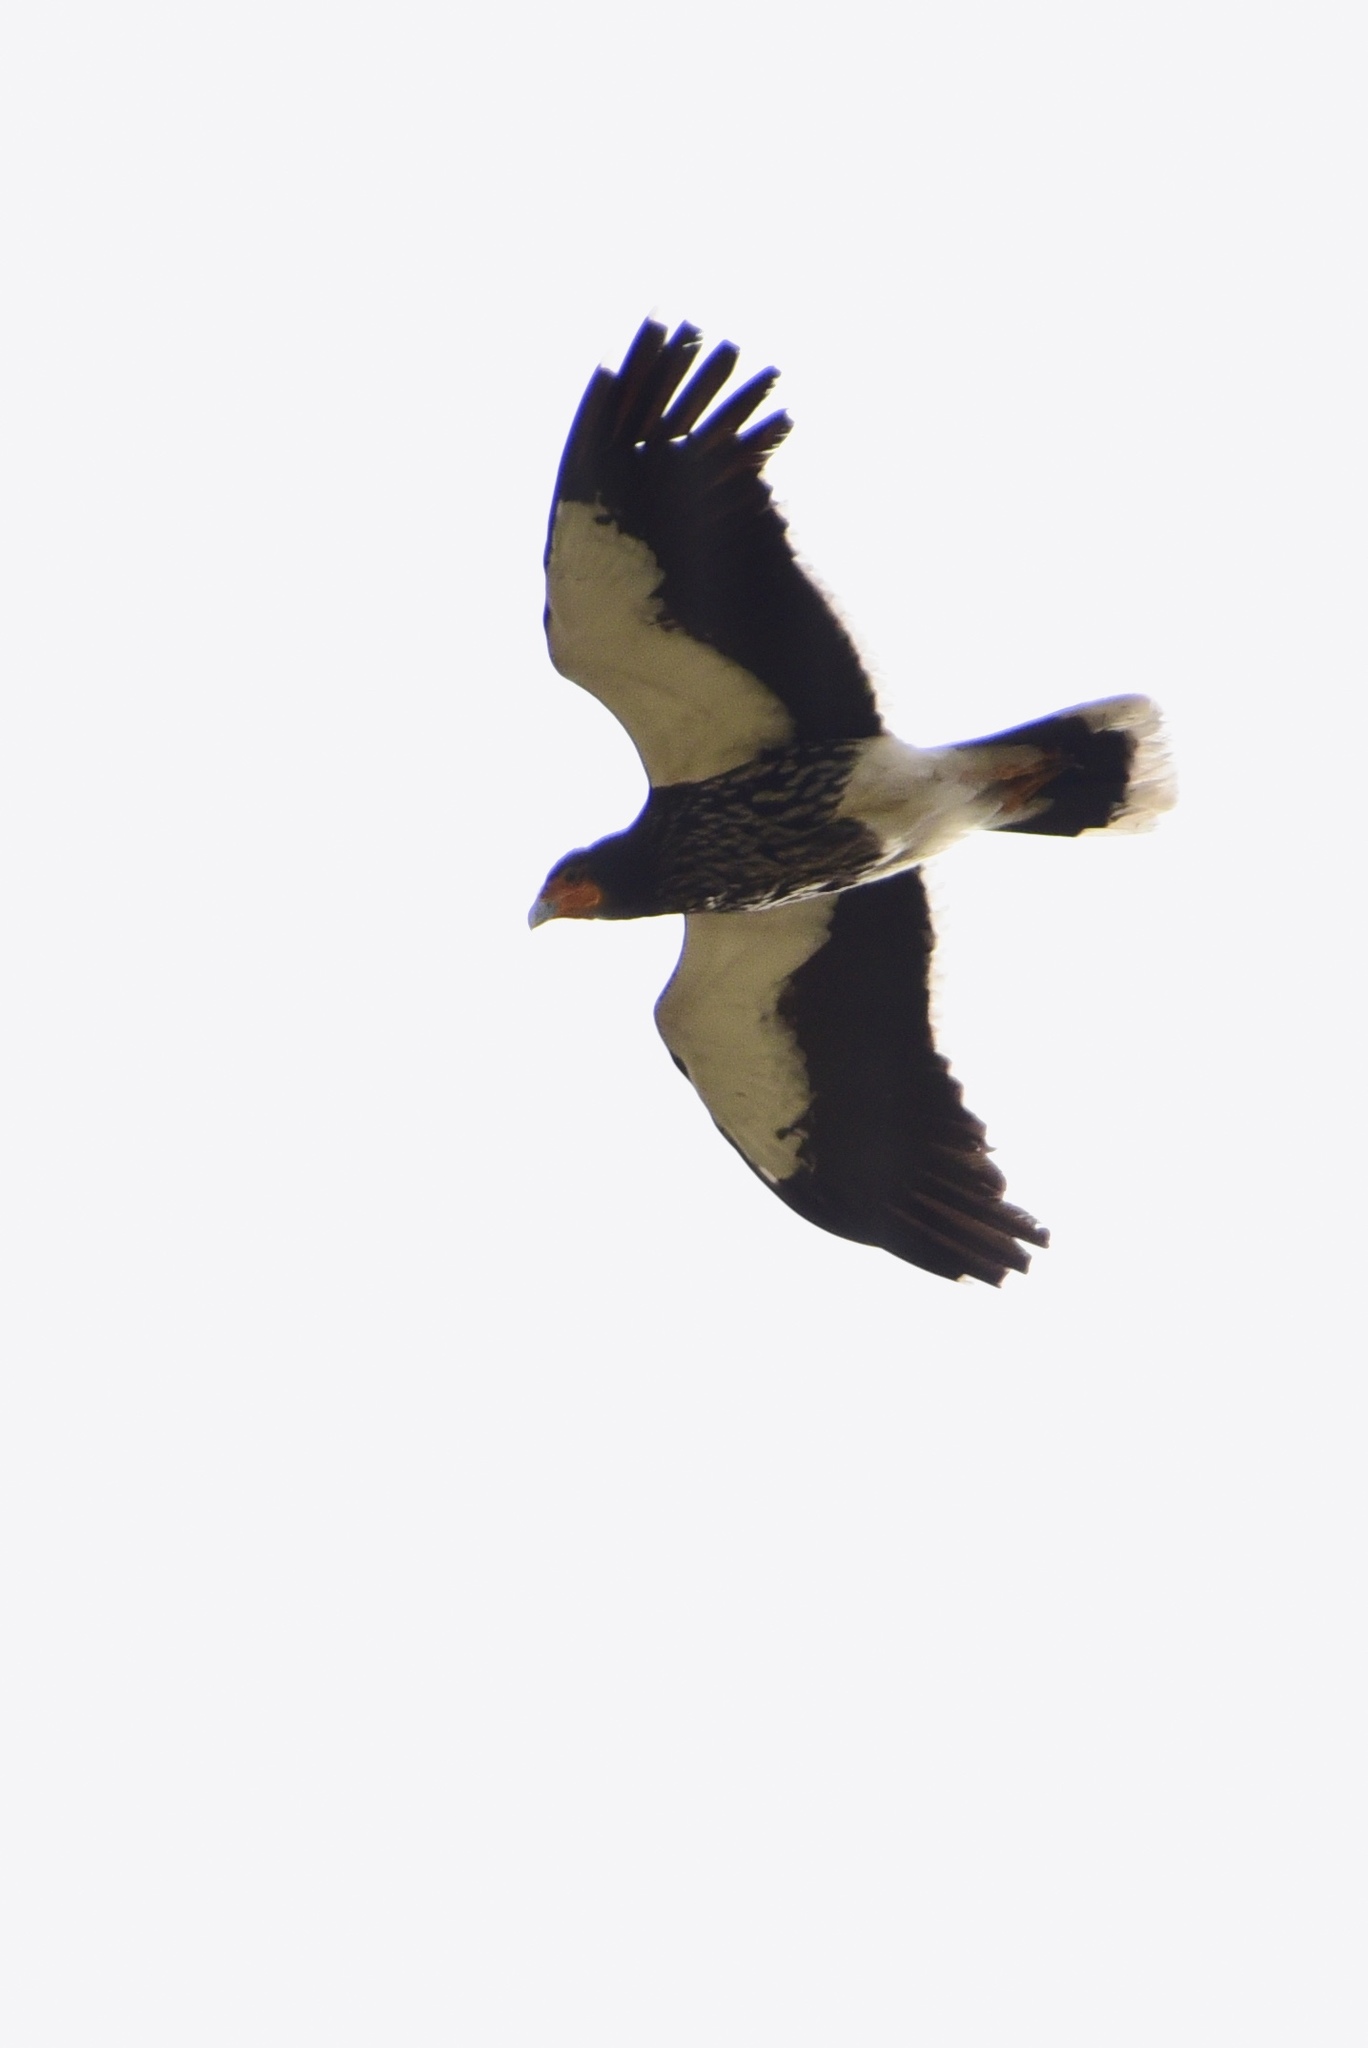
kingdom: Animalia
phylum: Chordata
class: Aves
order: Falconiformes
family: Falconidae
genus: Daptrius
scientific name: Daptrius
